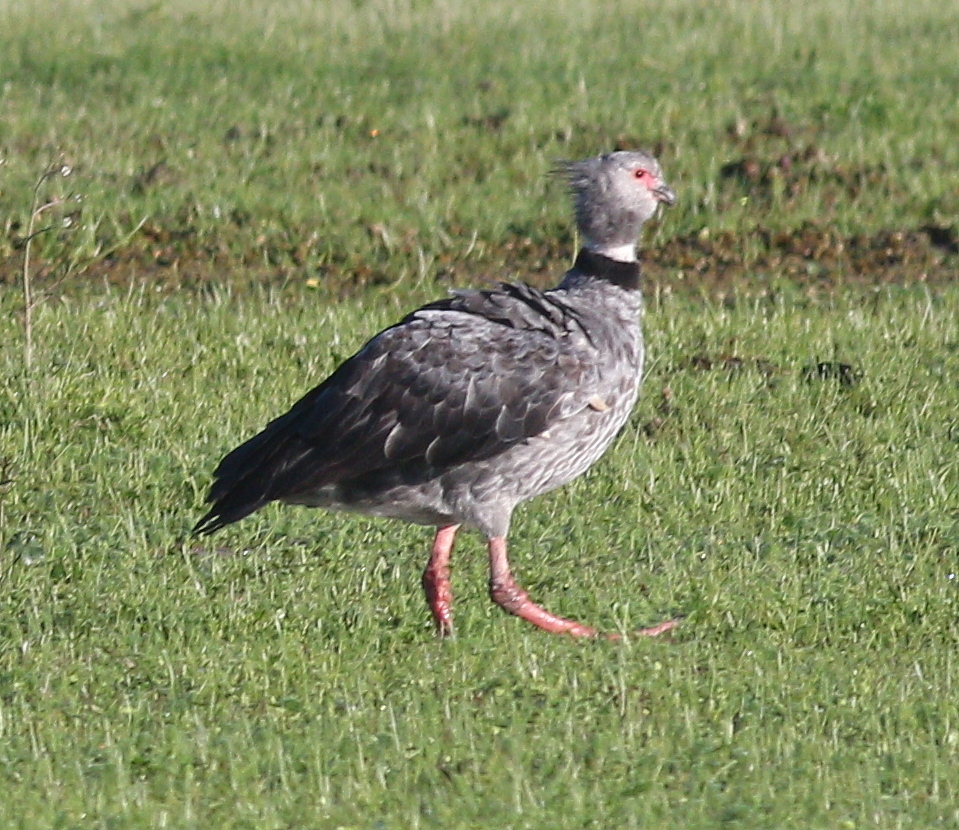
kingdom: Animalia
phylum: Chordata
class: Aves
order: Anseriformes
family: Anhimidae
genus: Chauna
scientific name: Chauna torquata
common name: Southern screamer
